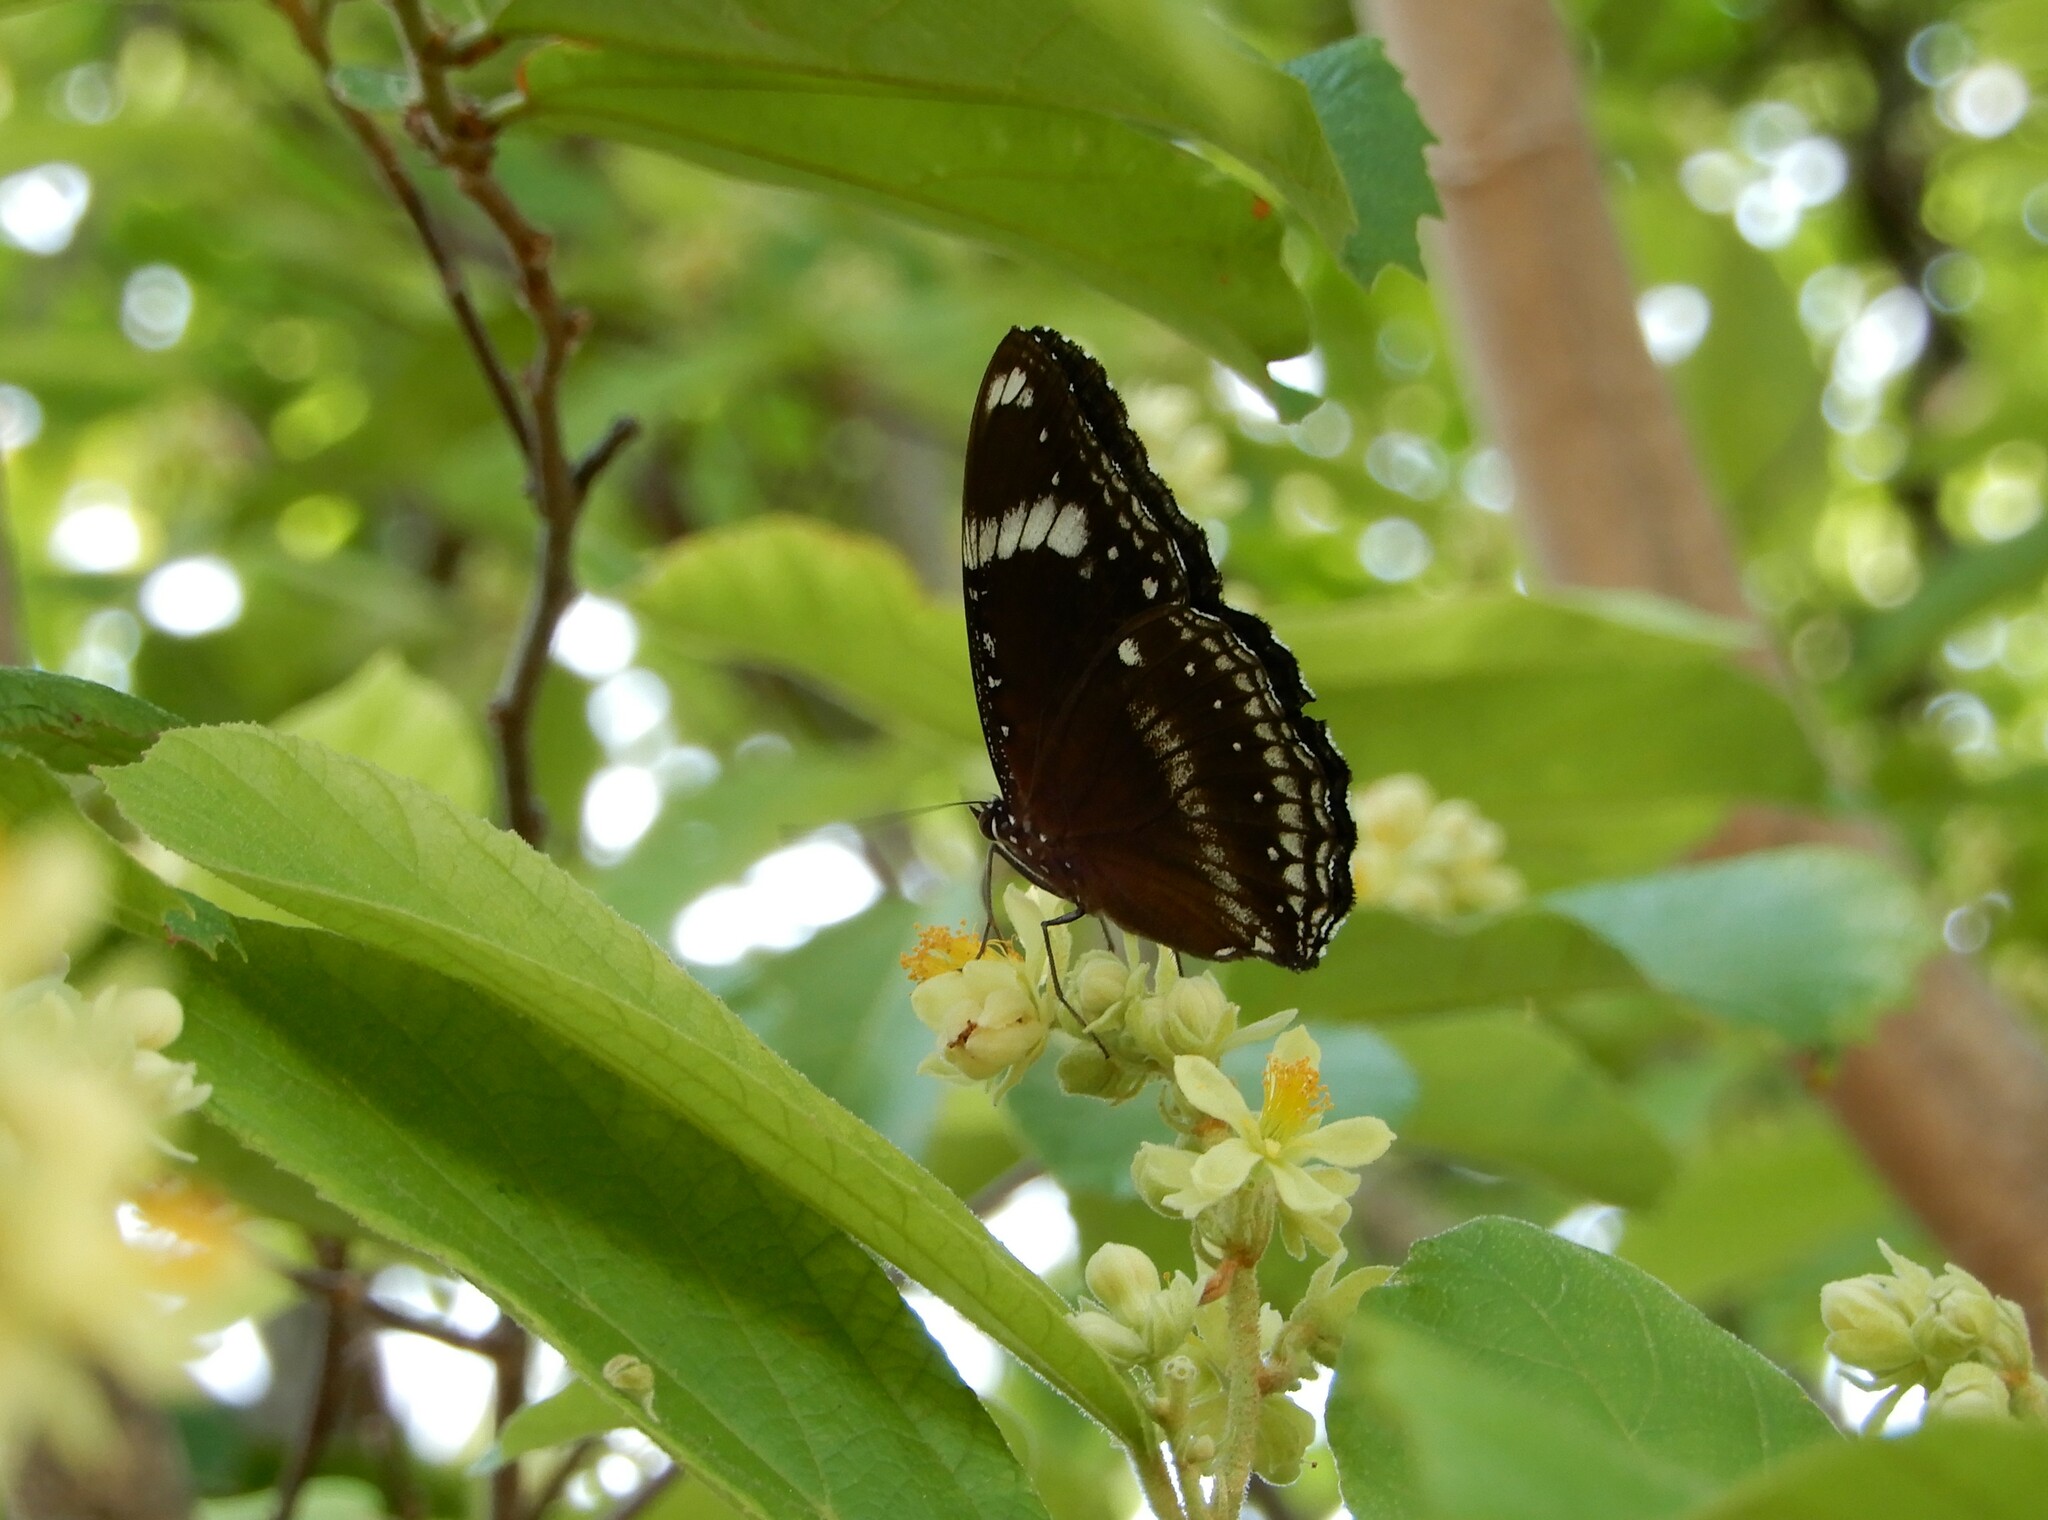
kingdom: Animalia
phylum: Arthropoda
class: Insecta
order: Lepidoptera
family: Nymphalidae
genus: Hypolimnas
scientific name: Hypolimnas bolina
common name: Great eggfly
